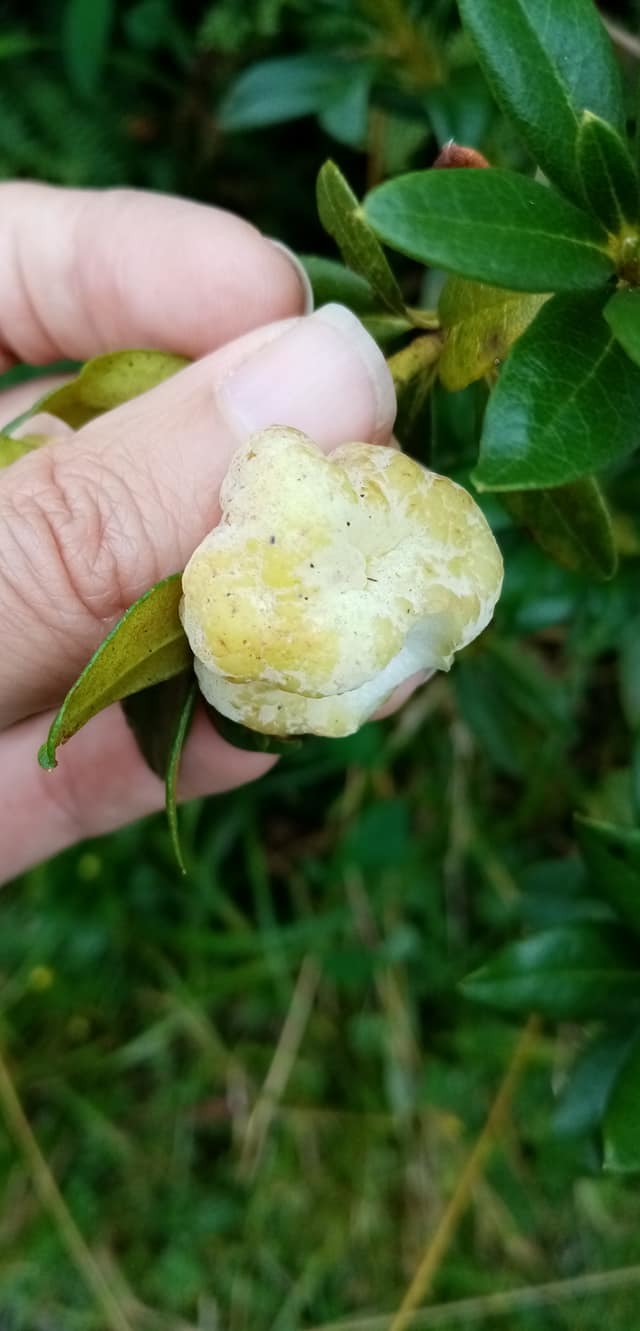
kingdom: Fungi
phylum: Basidiomycota
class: Exobasidiomycetes
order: Exobasidiales
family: Exobasidiaceae
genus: Exobasidium
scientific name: Exobasidium rhododendri
